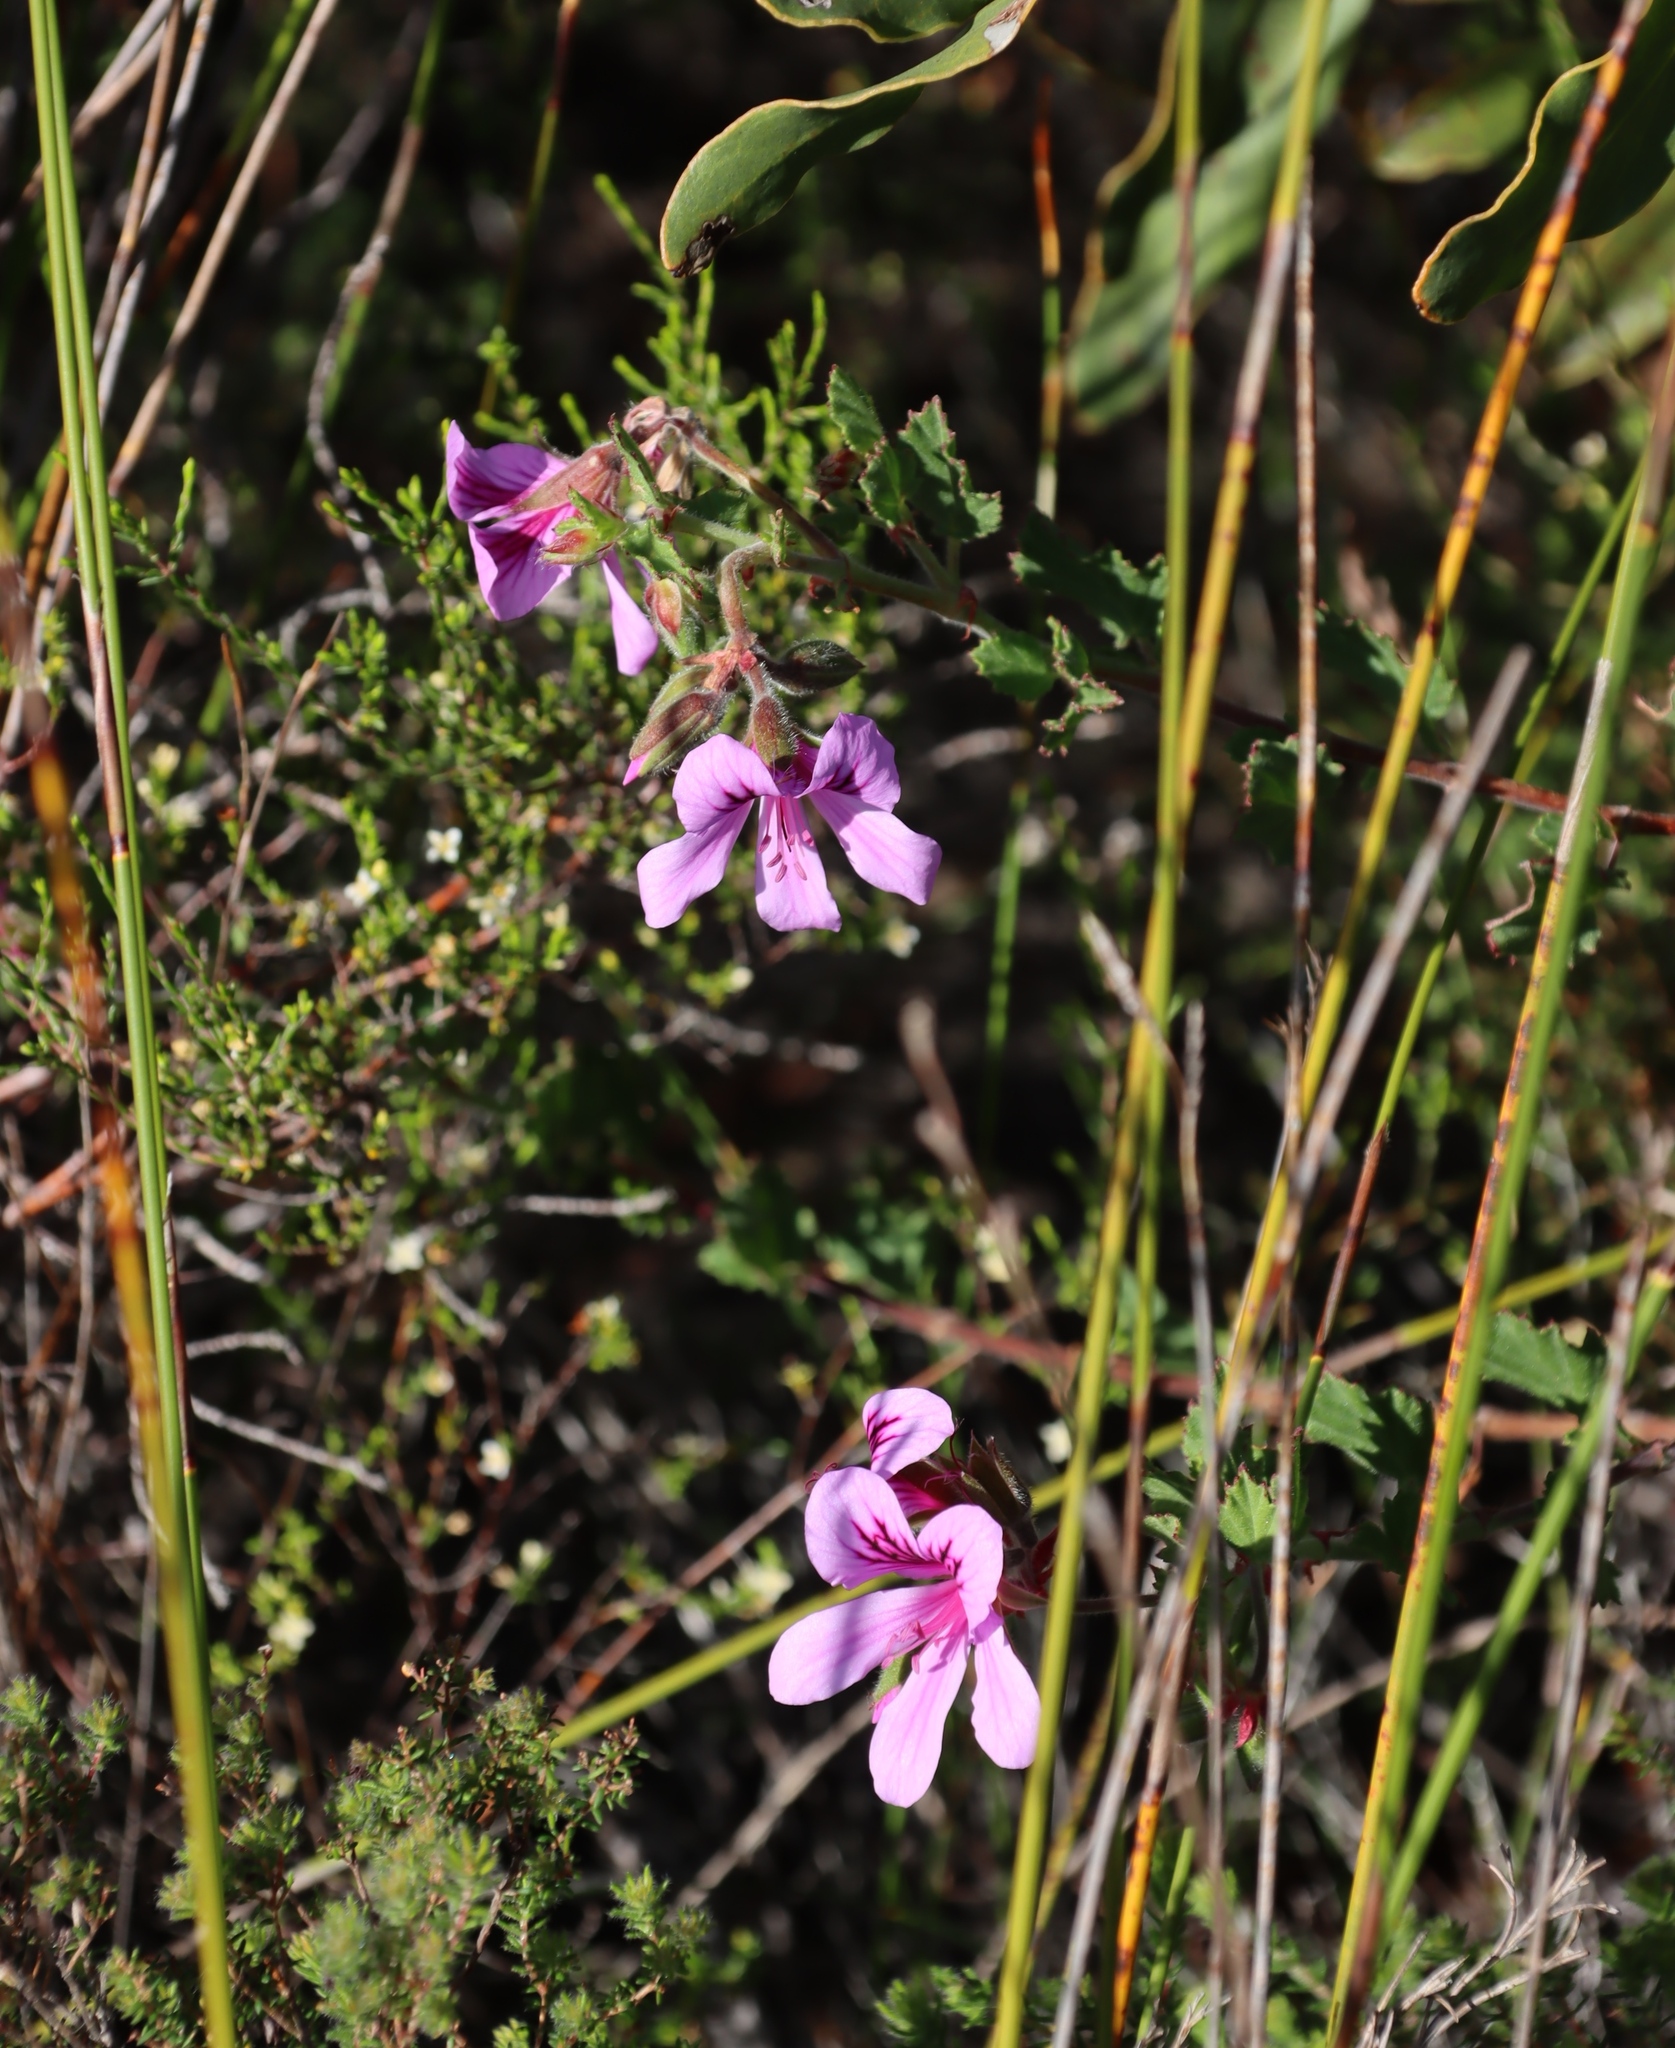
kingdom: Plantae
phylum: Tracheophyta
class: Magnoliopsida
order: Geraniales
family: Geraniaceae
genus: Pelargonium
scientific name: Pelargonium betulinum
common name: Birch-leaf pelargonium
